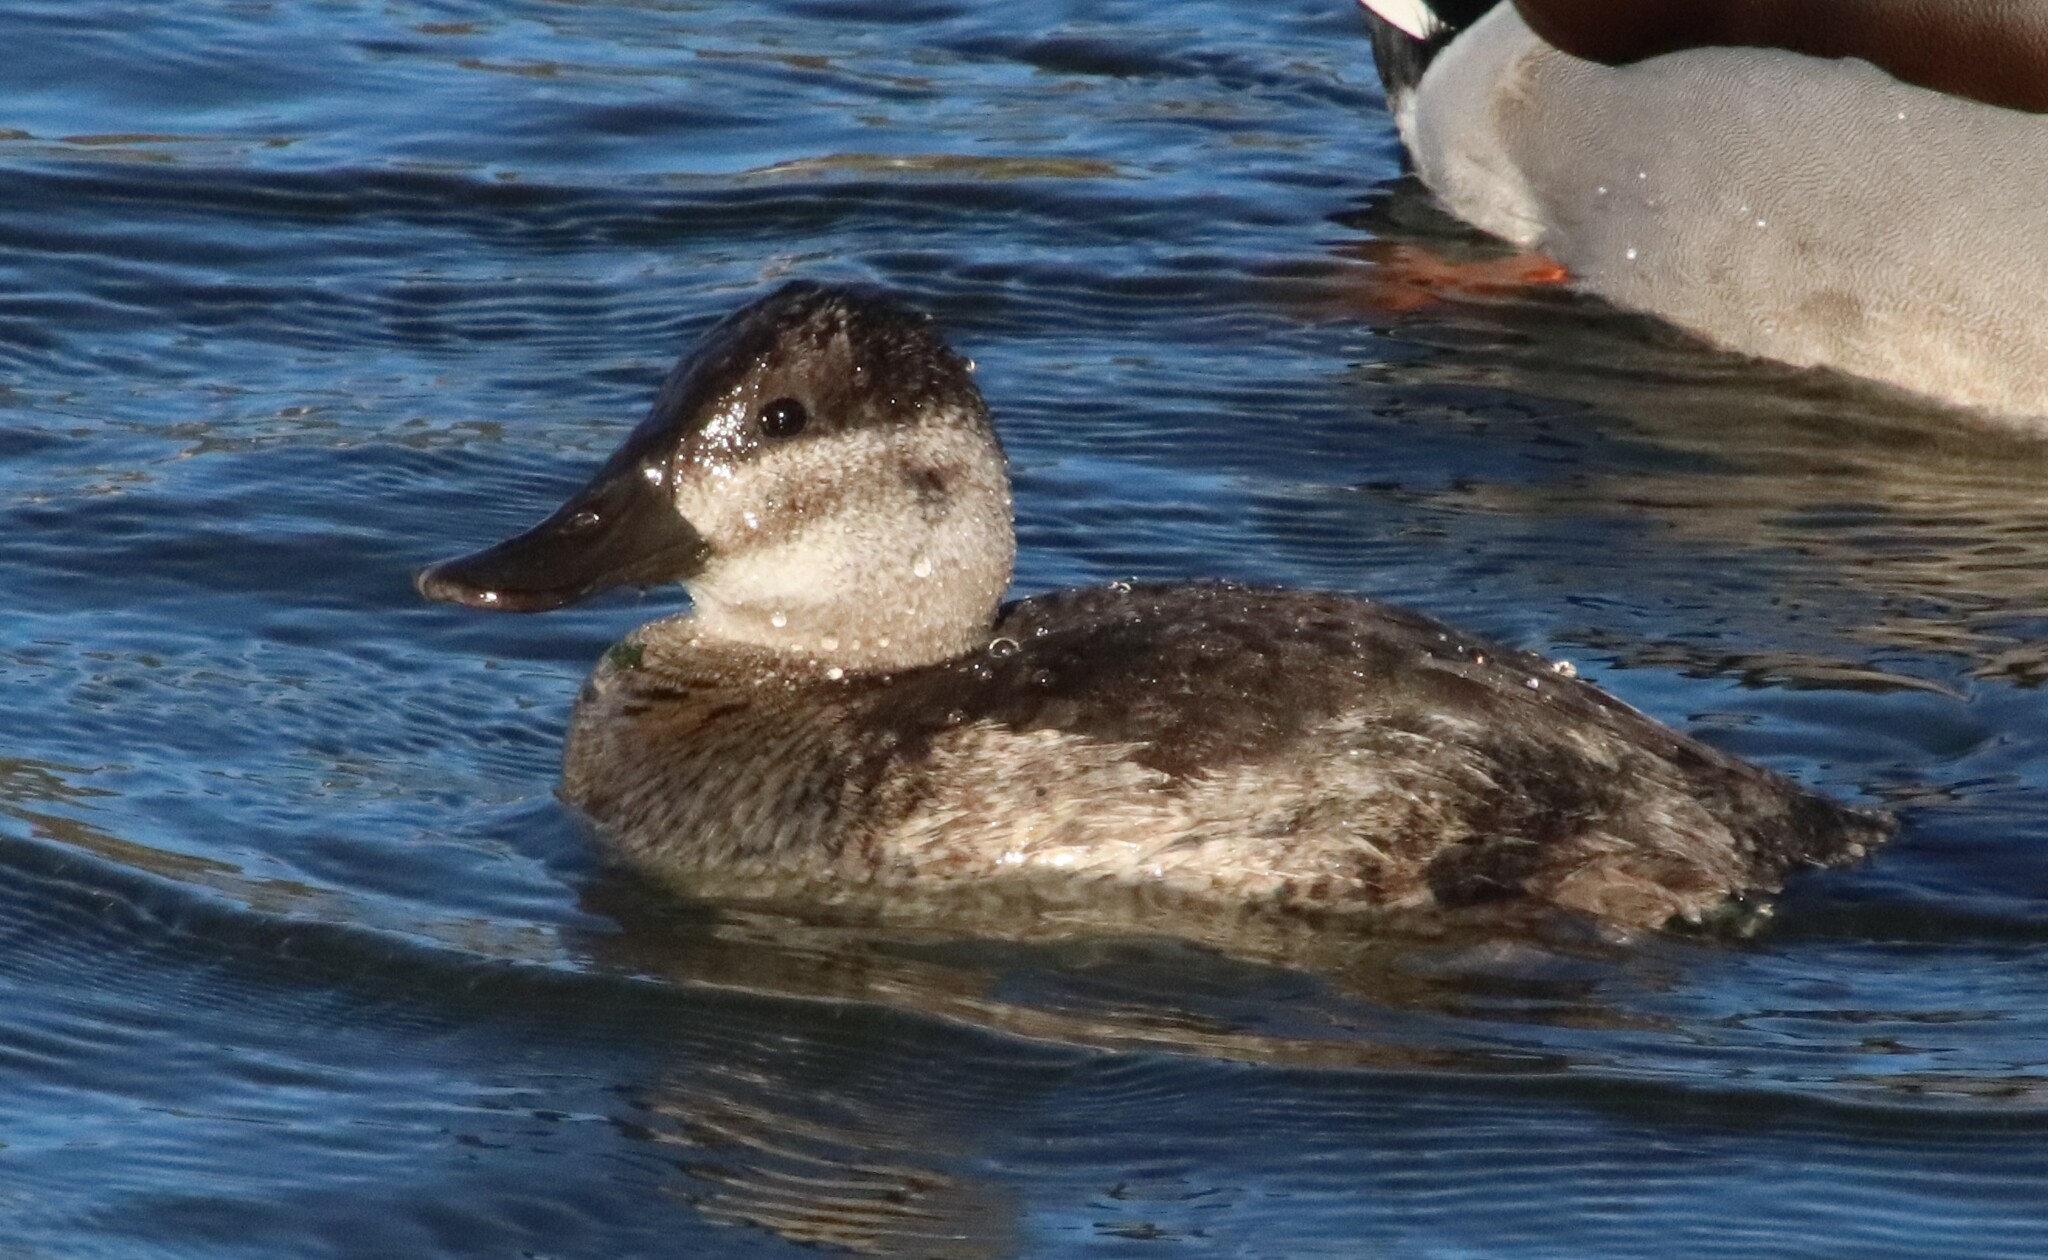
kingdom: Animalia
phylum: Chordata
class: Aves
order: Anseriformes
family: Anatidae
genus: Oxyura
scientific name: Oxyura jamaicensis
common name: Ruddy duck
